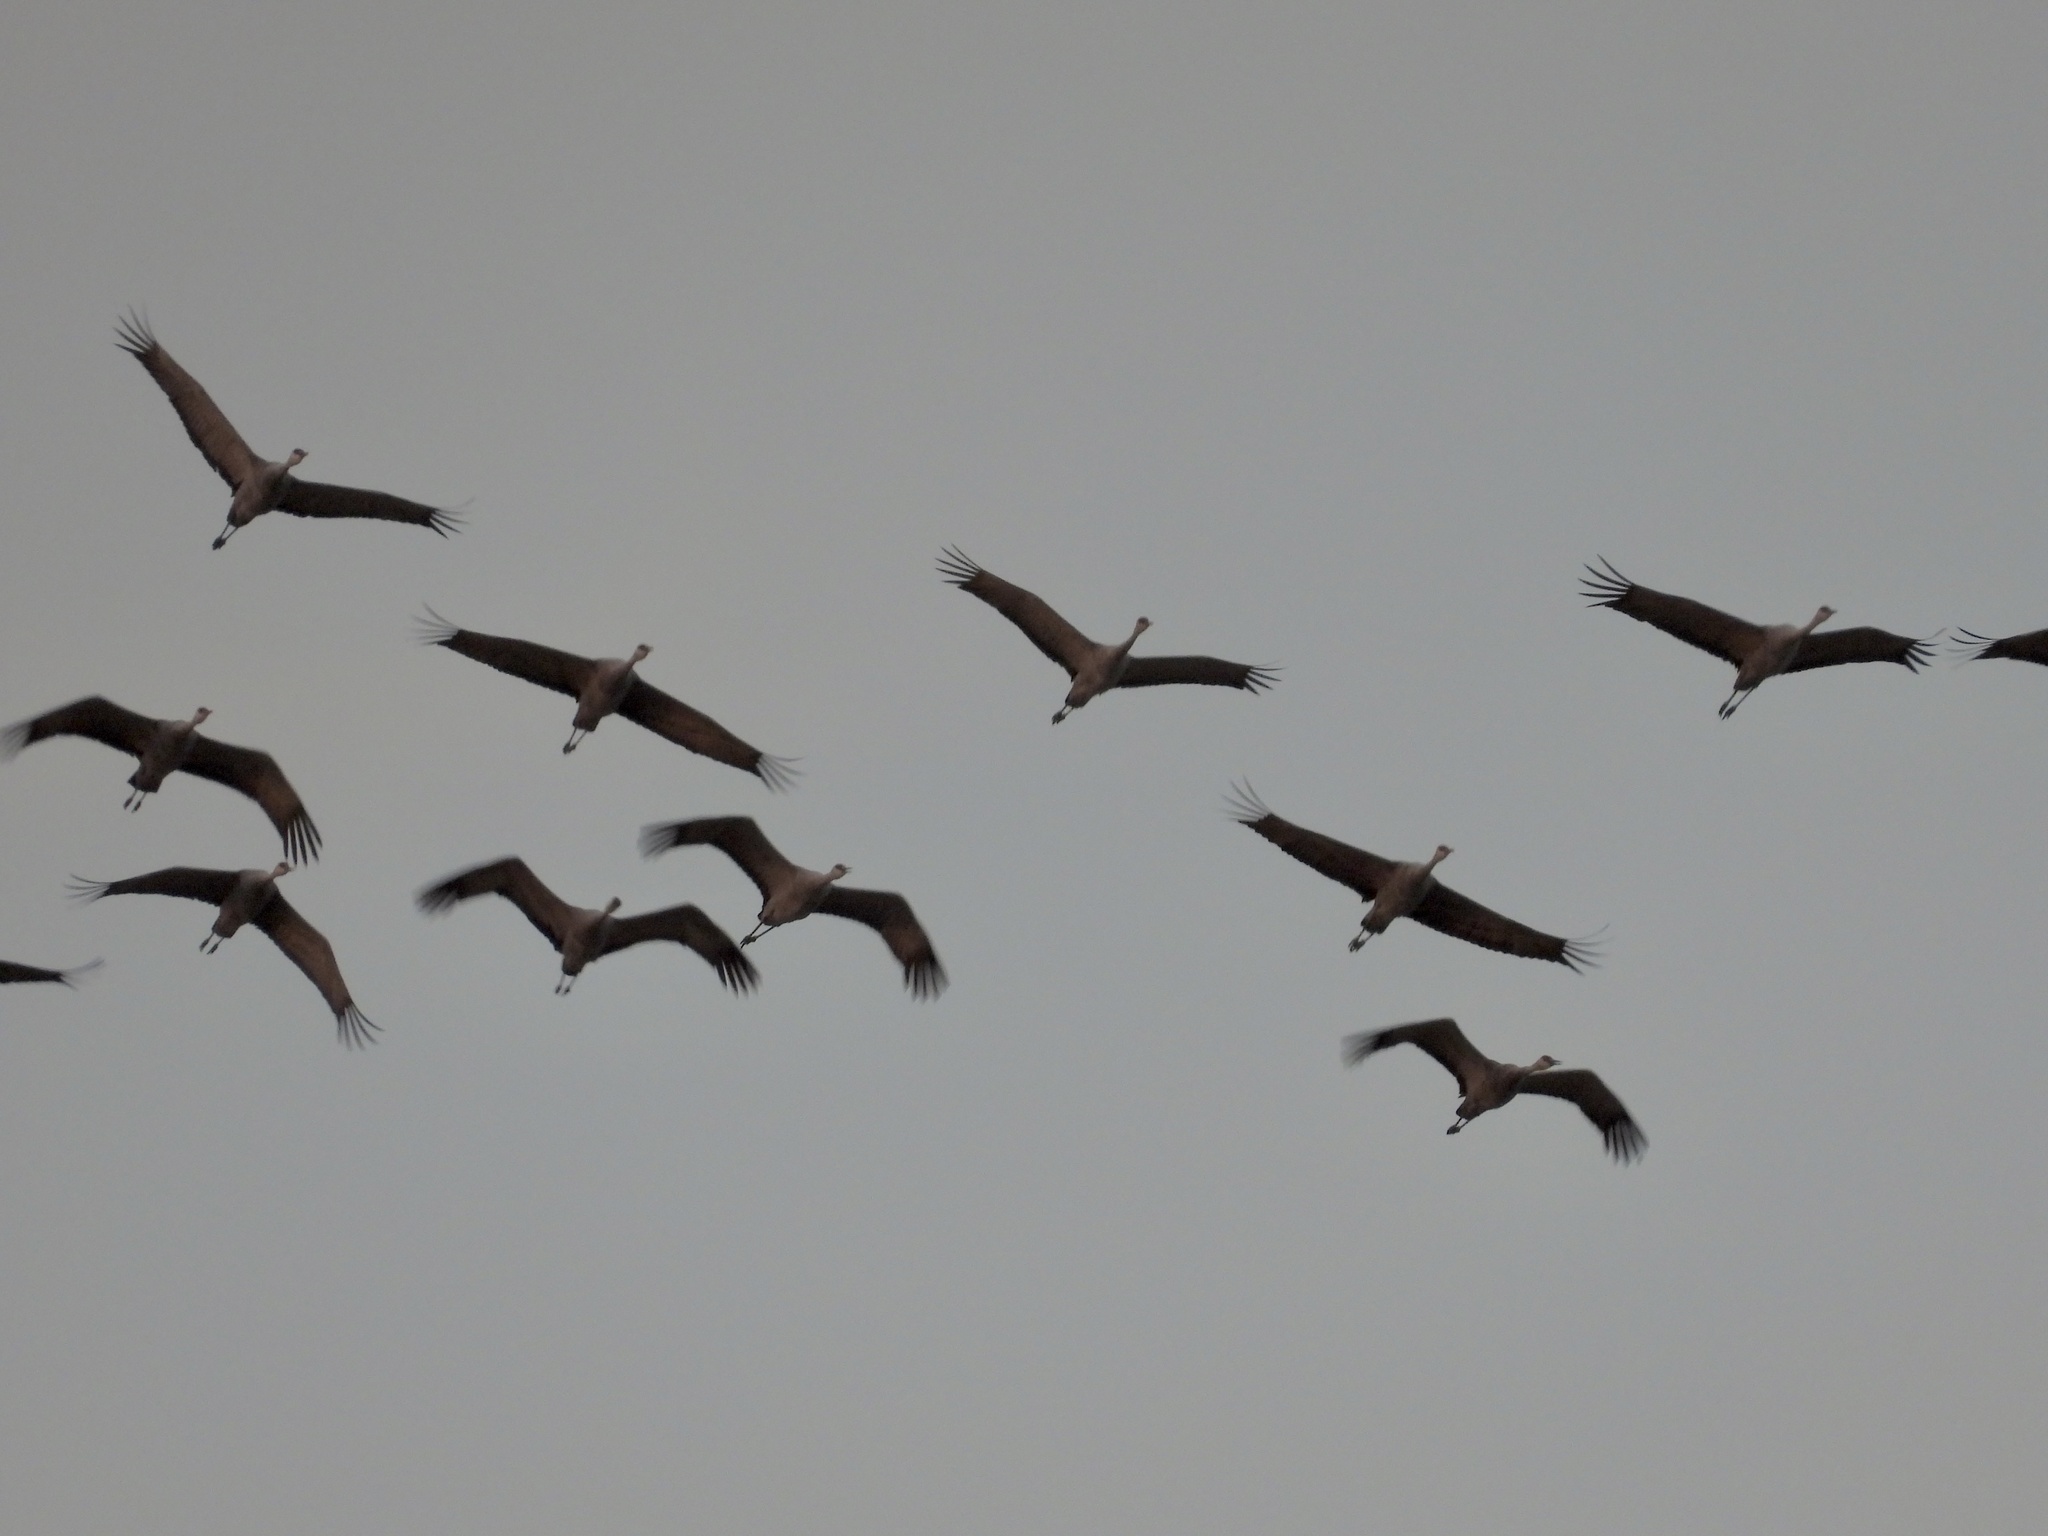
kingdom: Animalia
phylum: Chordata
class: Aves
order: Gruiformes
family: Gruidae
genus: Grus
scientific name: Grus canadensis
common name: Sandhill crane
